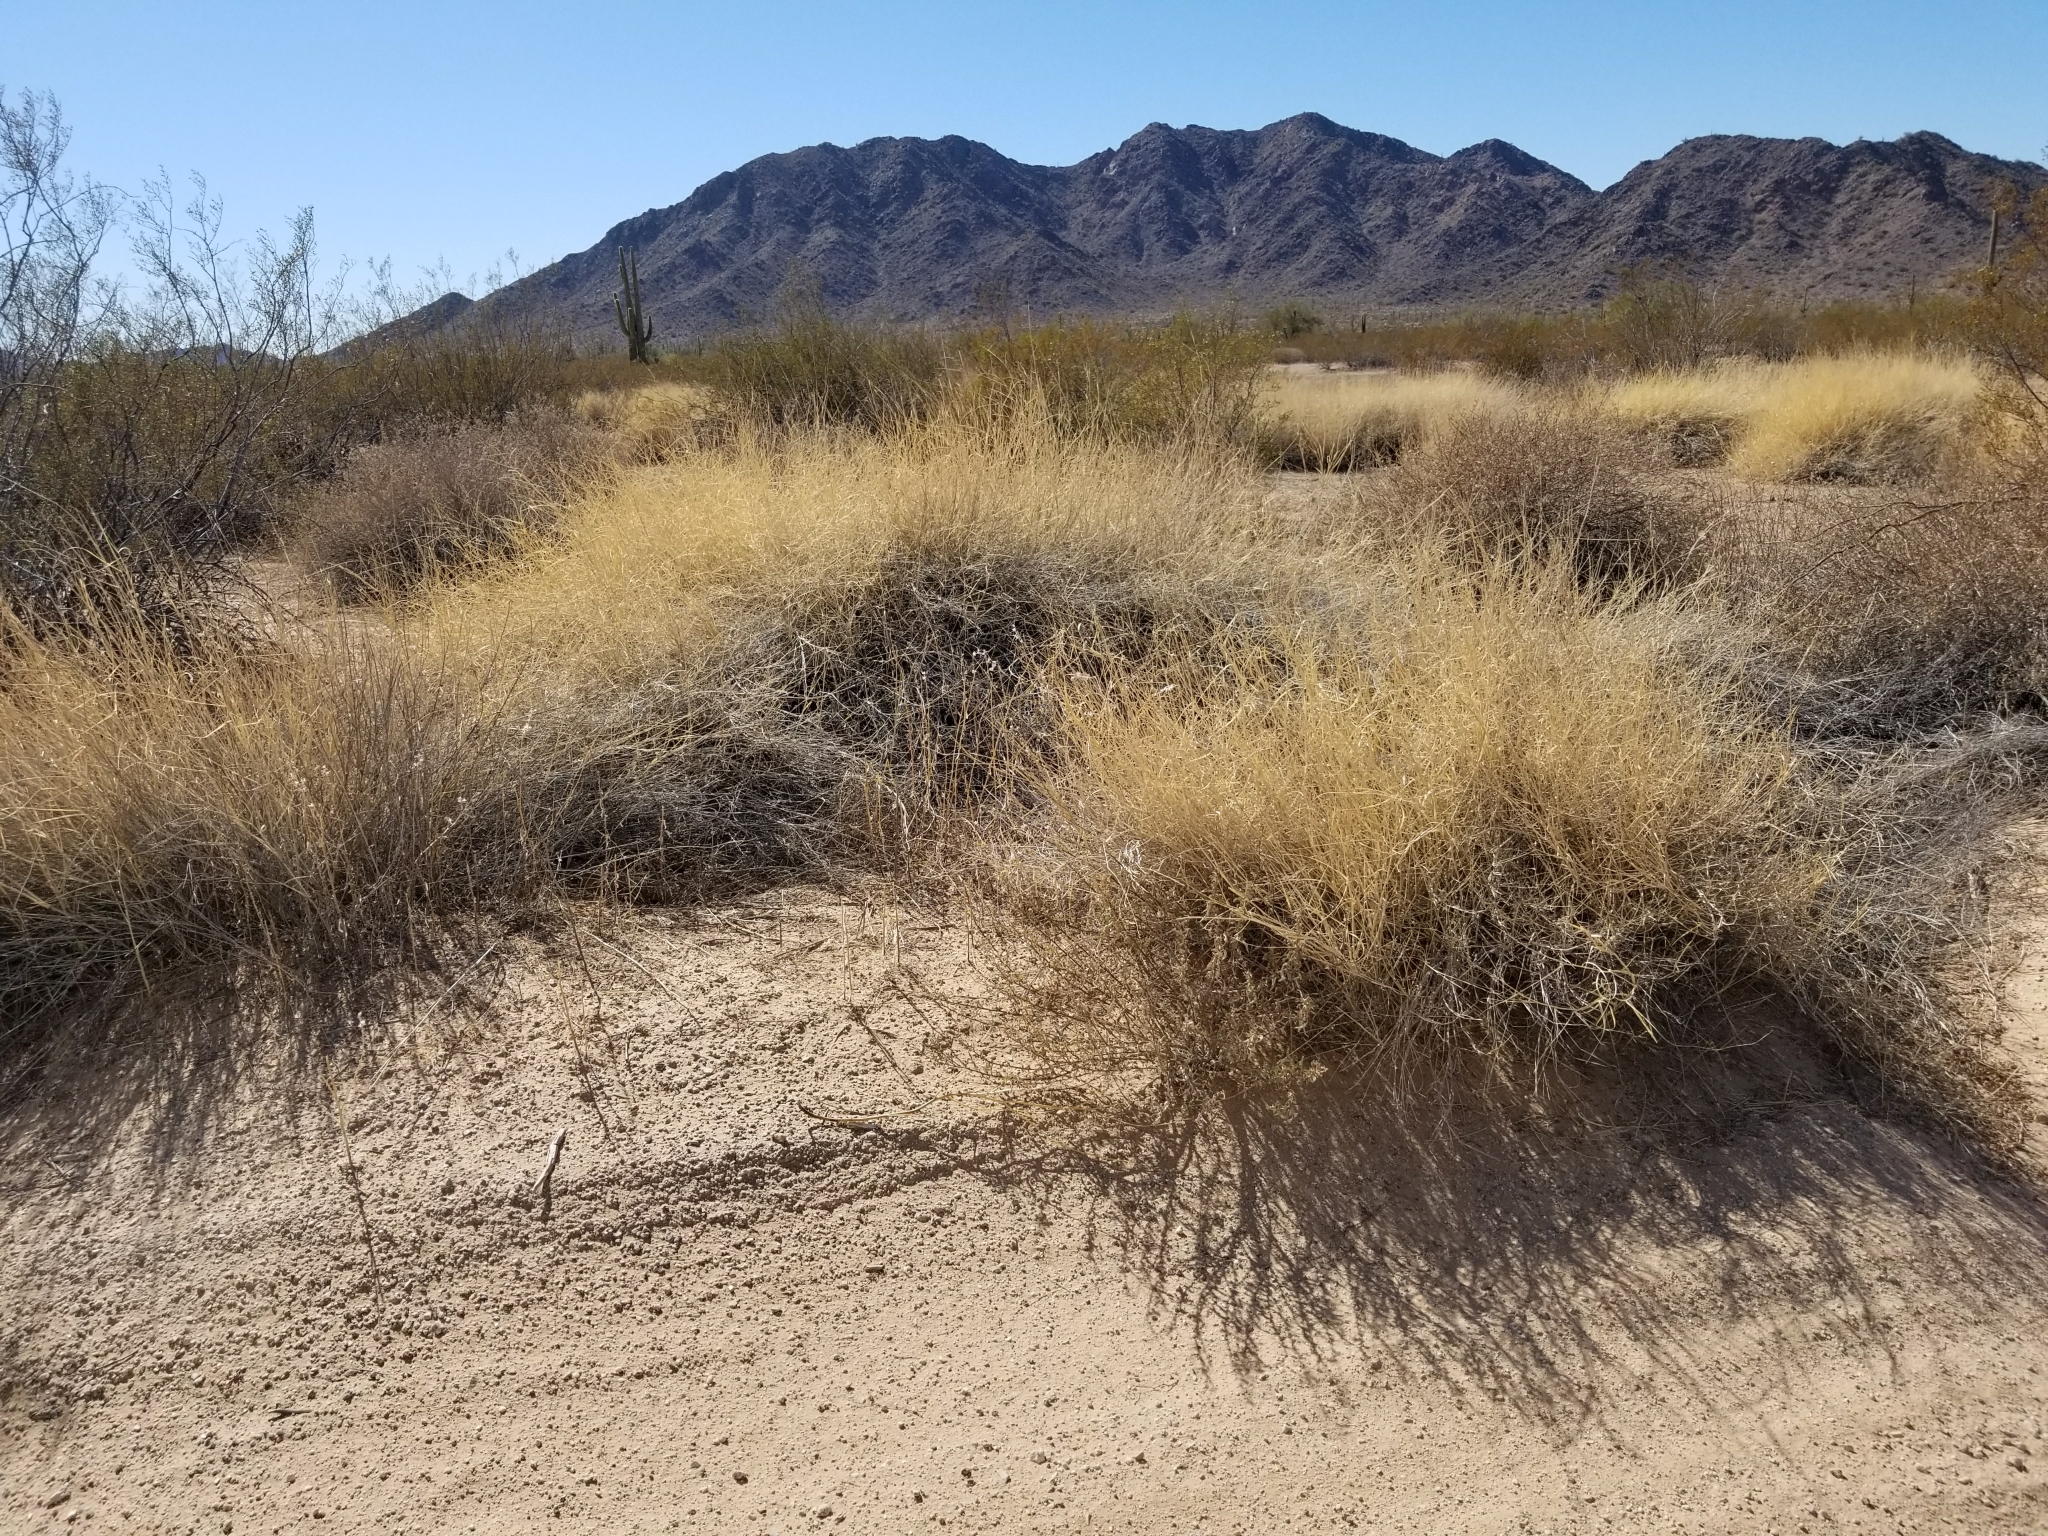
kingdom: Plantae
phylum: Tracheophyta
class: Liliopsida
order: Poales
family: Poaceae
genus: Hilaria
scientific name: Hilaria rigida
